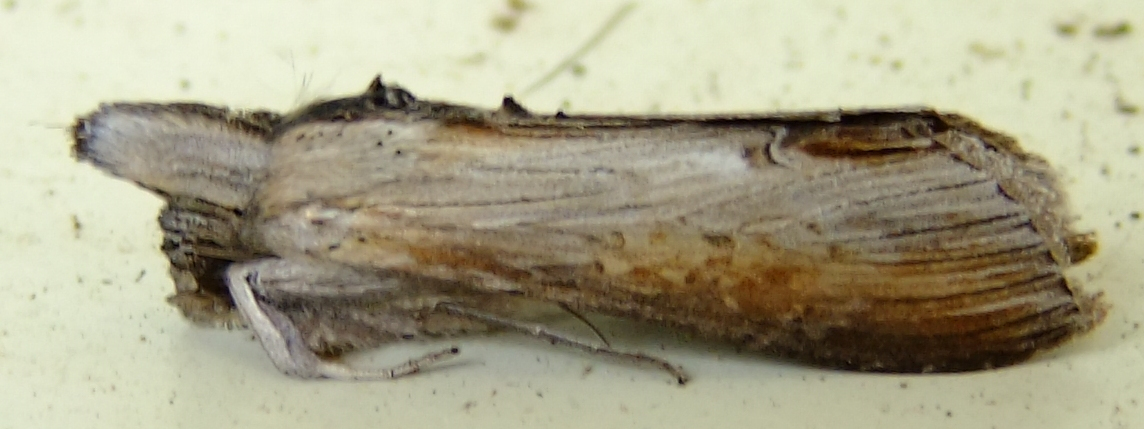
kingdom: Animalia
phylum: Arthropoda
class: Insecta
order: Lepidoptera
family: Noctuidae
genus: Cucullia
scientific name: Cucullia asteroides
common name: Asteroid moth
